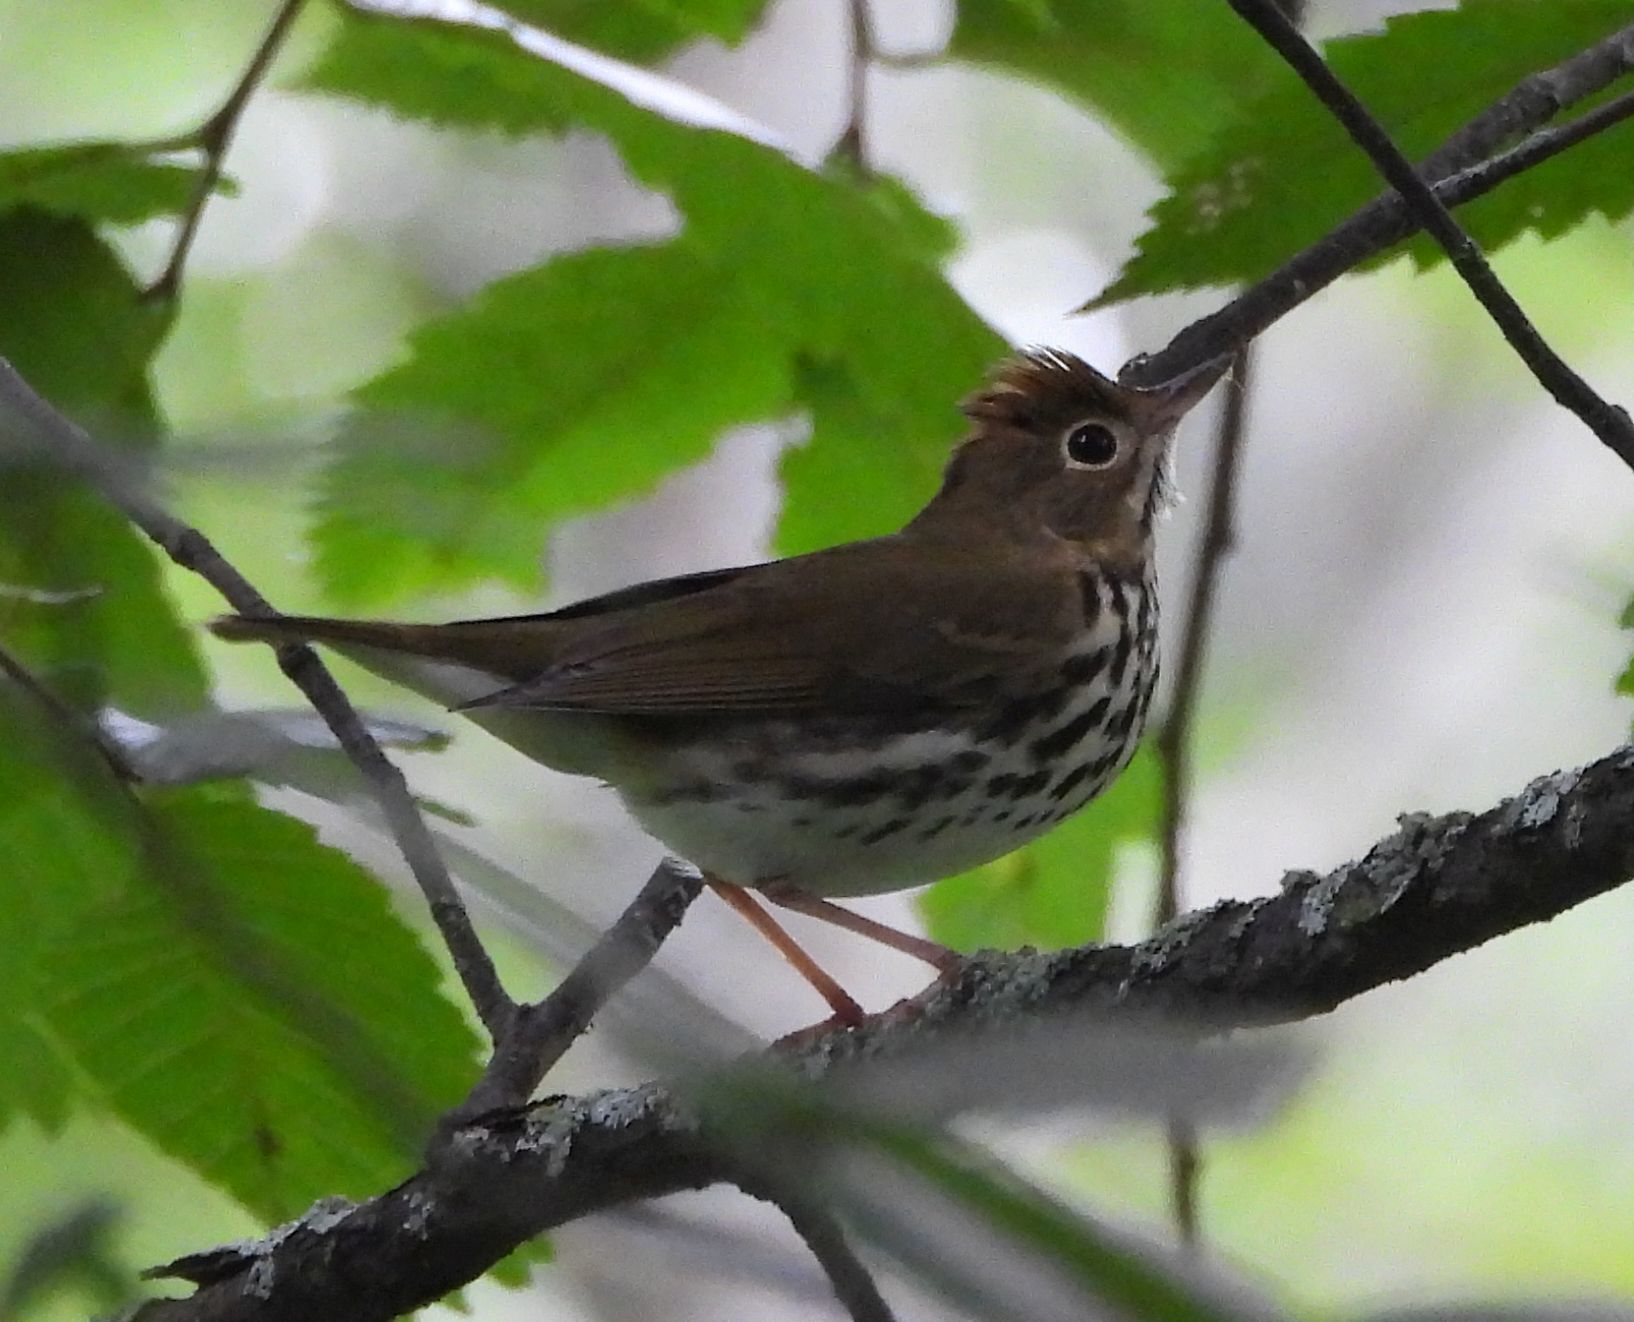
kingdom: Animalia
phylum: Chordata
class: Aves
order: Passeriformes
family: Parulidae
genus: Seiurus
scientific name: Seiurus aurocapilla
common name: Ovenbird
